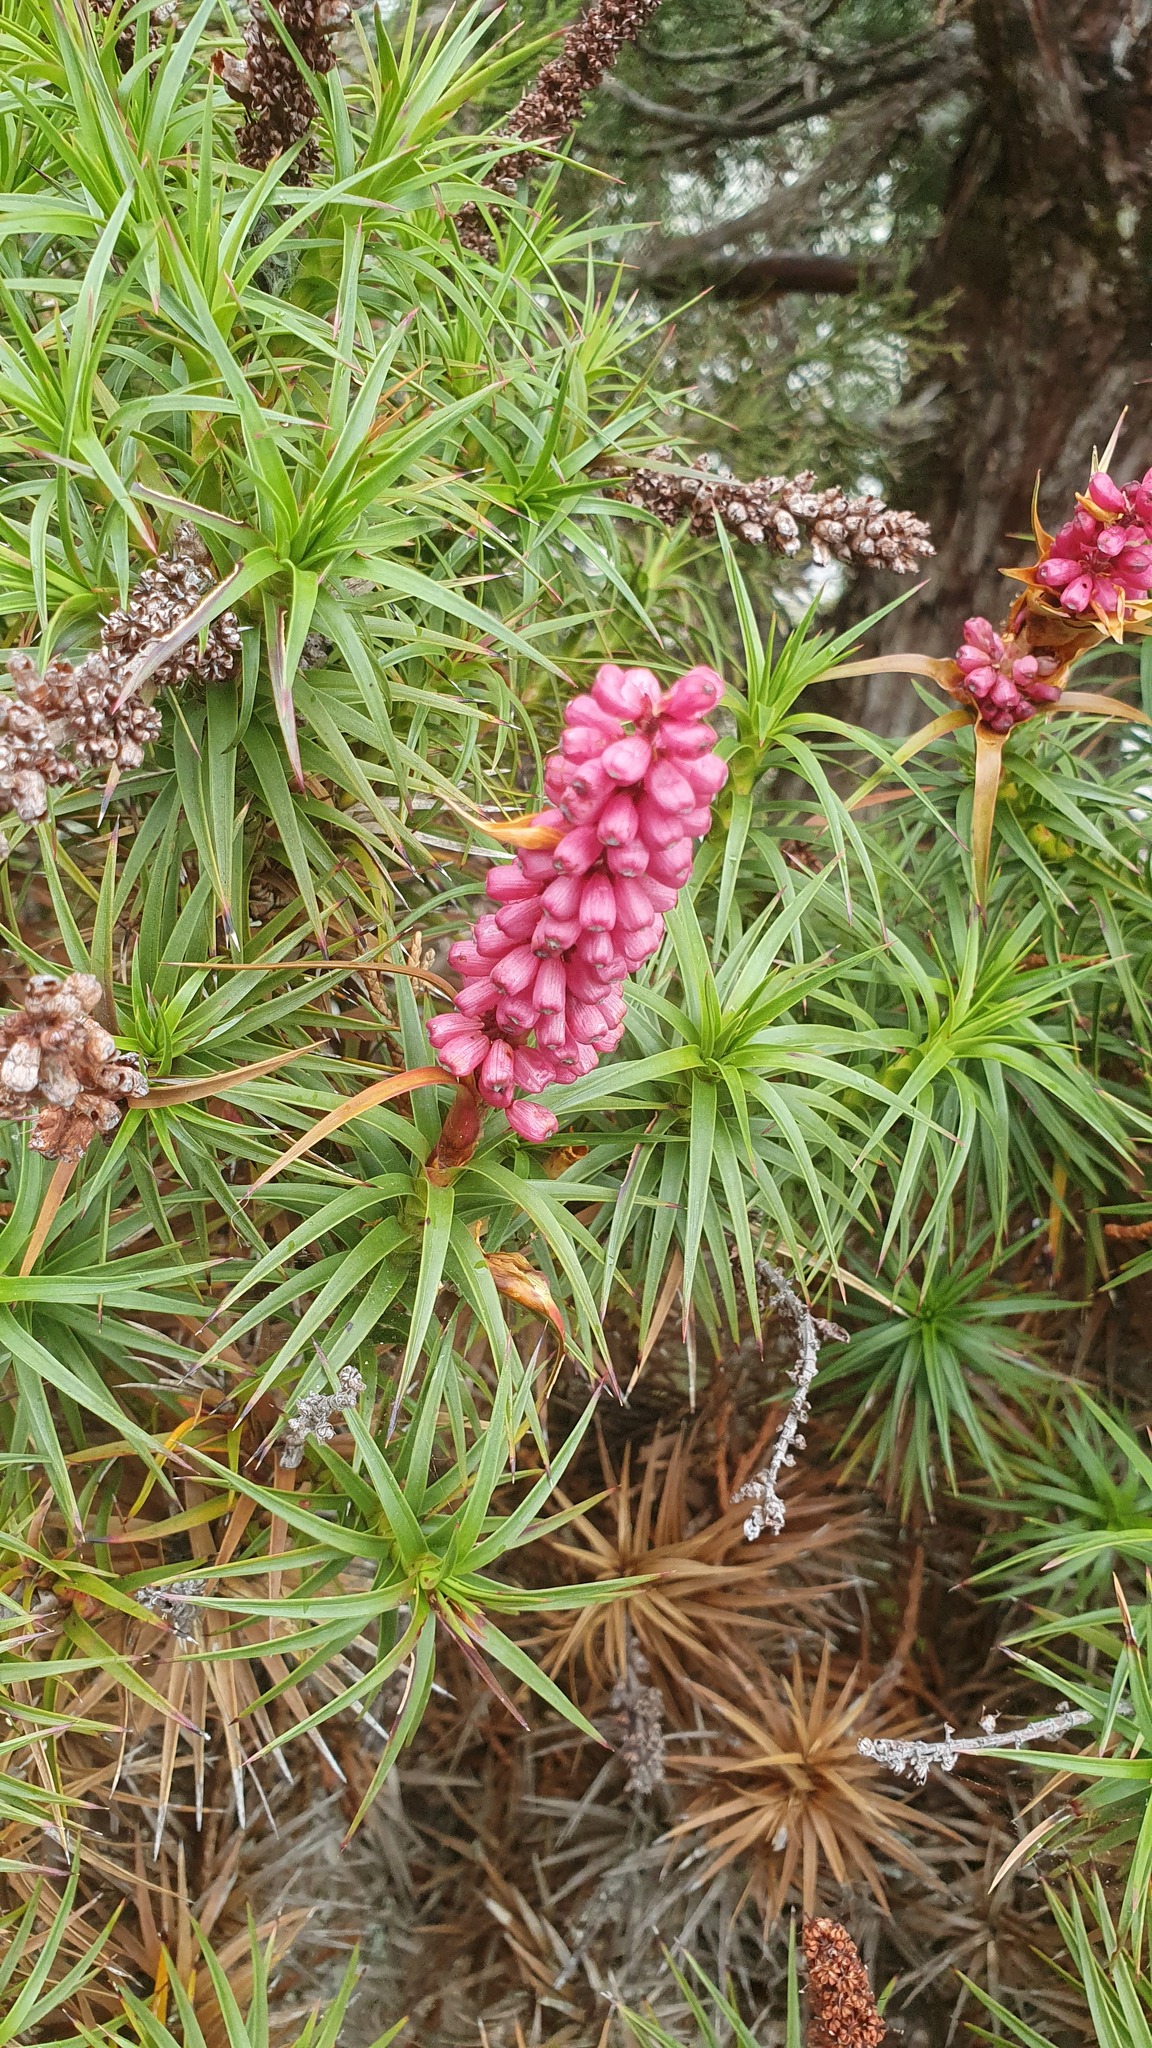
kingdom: Plantae
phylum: Tracheophyta
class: Magnoliopsida
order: Ericales
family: Ericaceae
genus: Dracophyllum
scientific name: Dracophyllum persistentifolium
